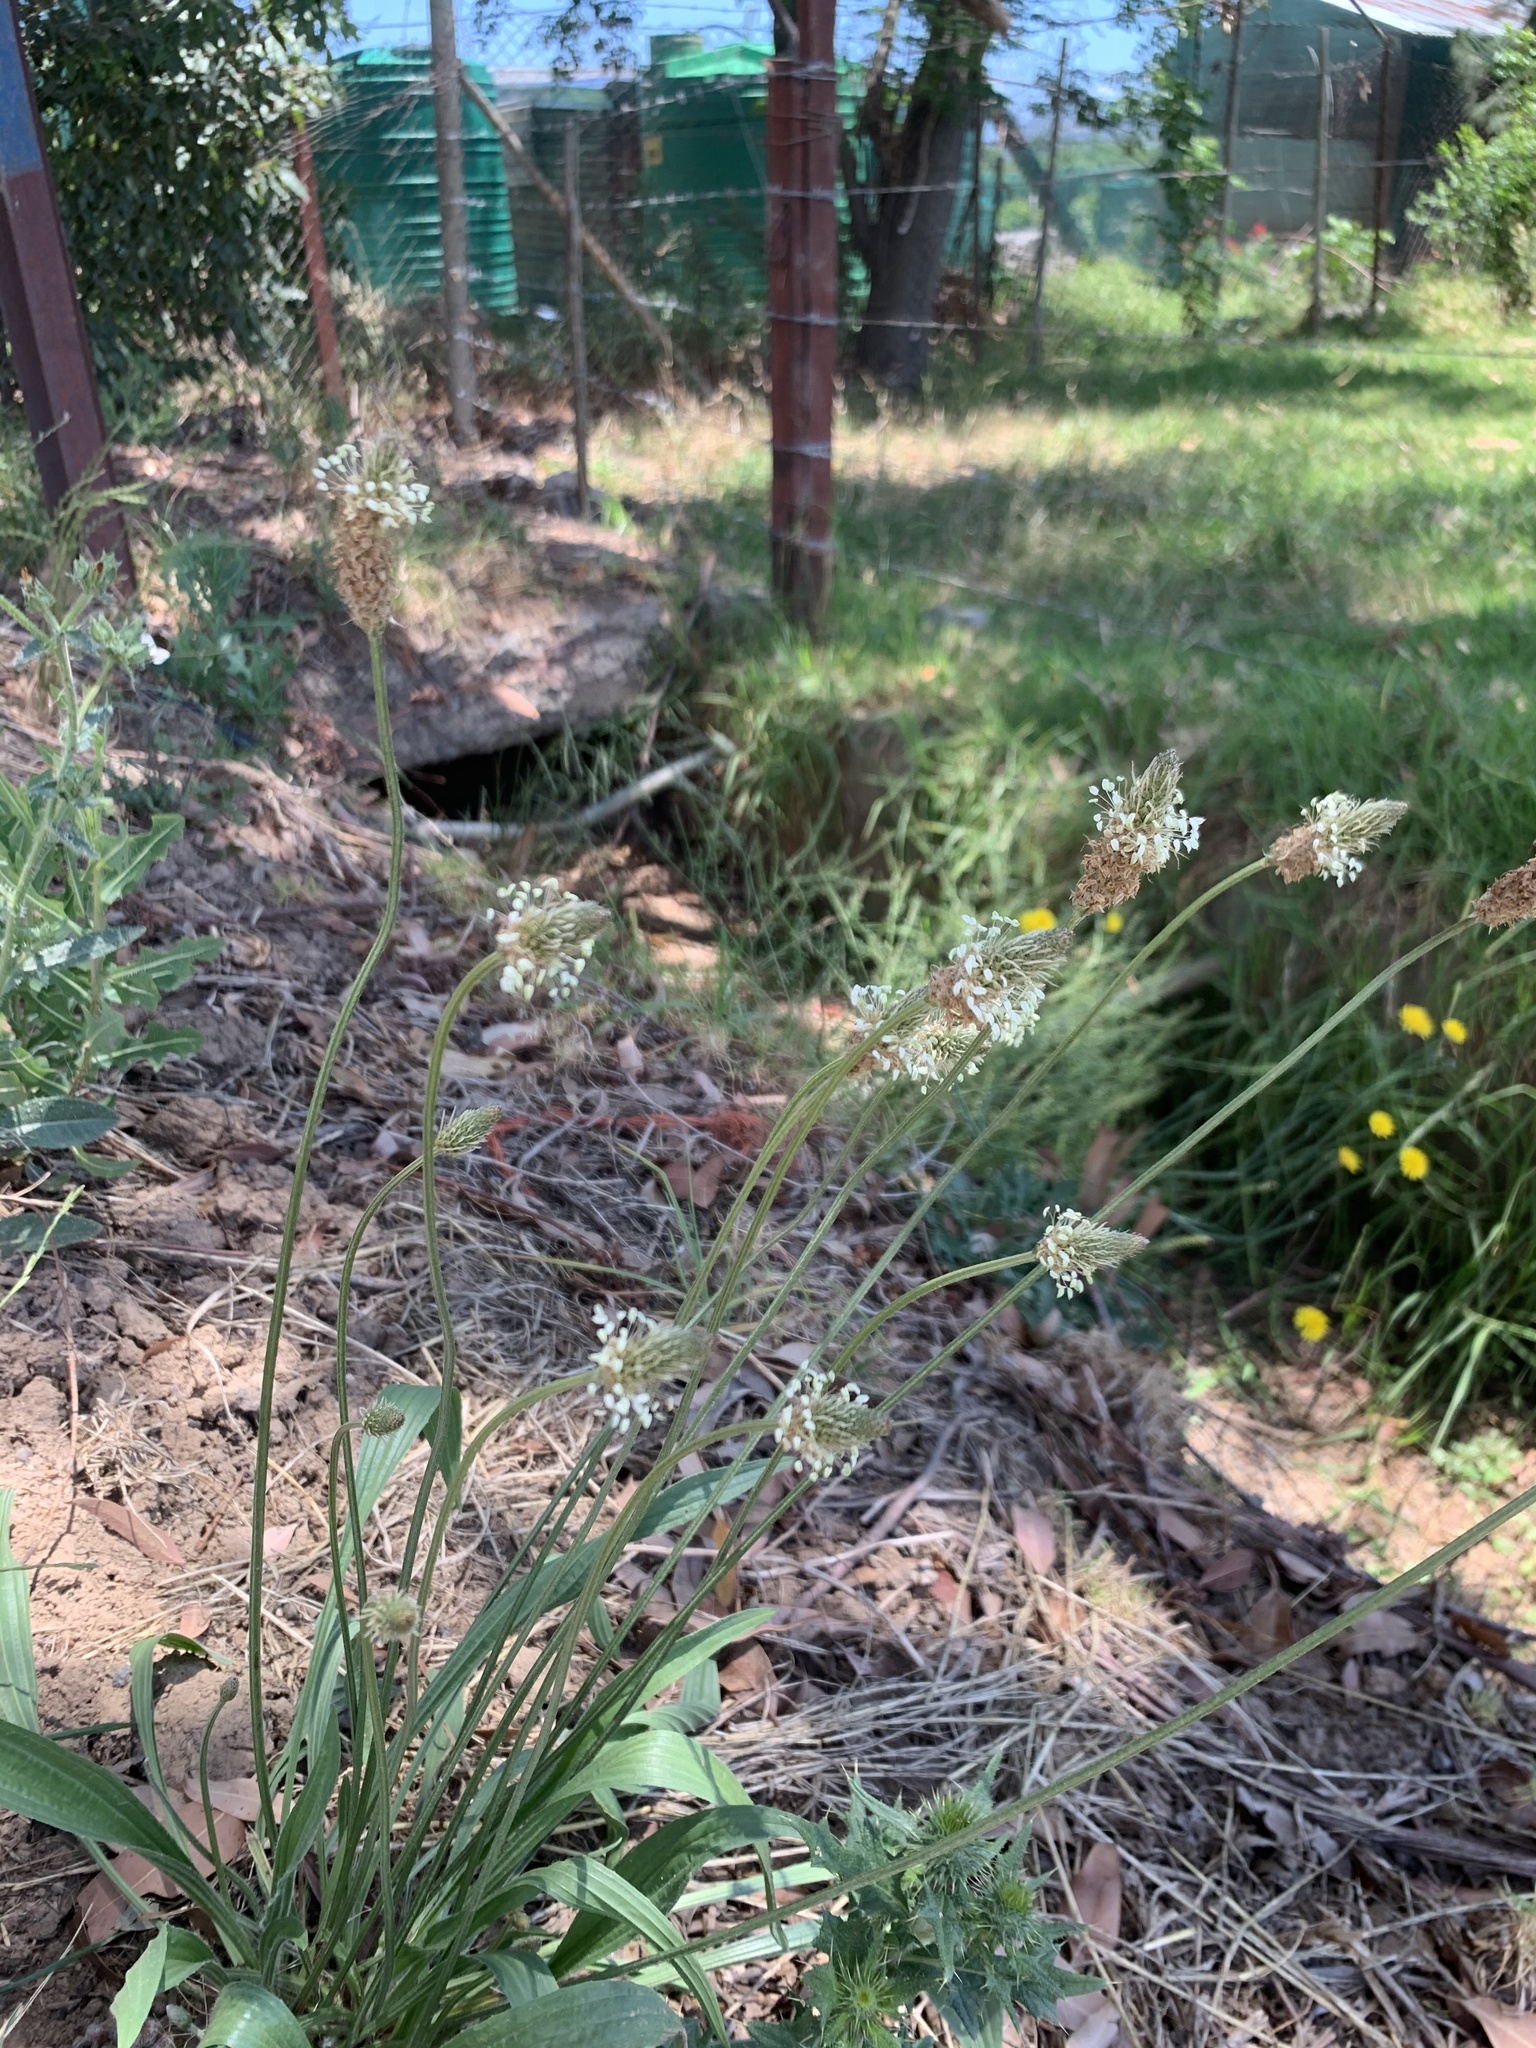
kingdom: Plantae
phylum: Tracheophyta
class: Magnoliopsida
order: Lamiales
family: Plantaginaceae
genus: Plantago
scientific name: Plantago lanceolata
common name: Ribwort plantain
